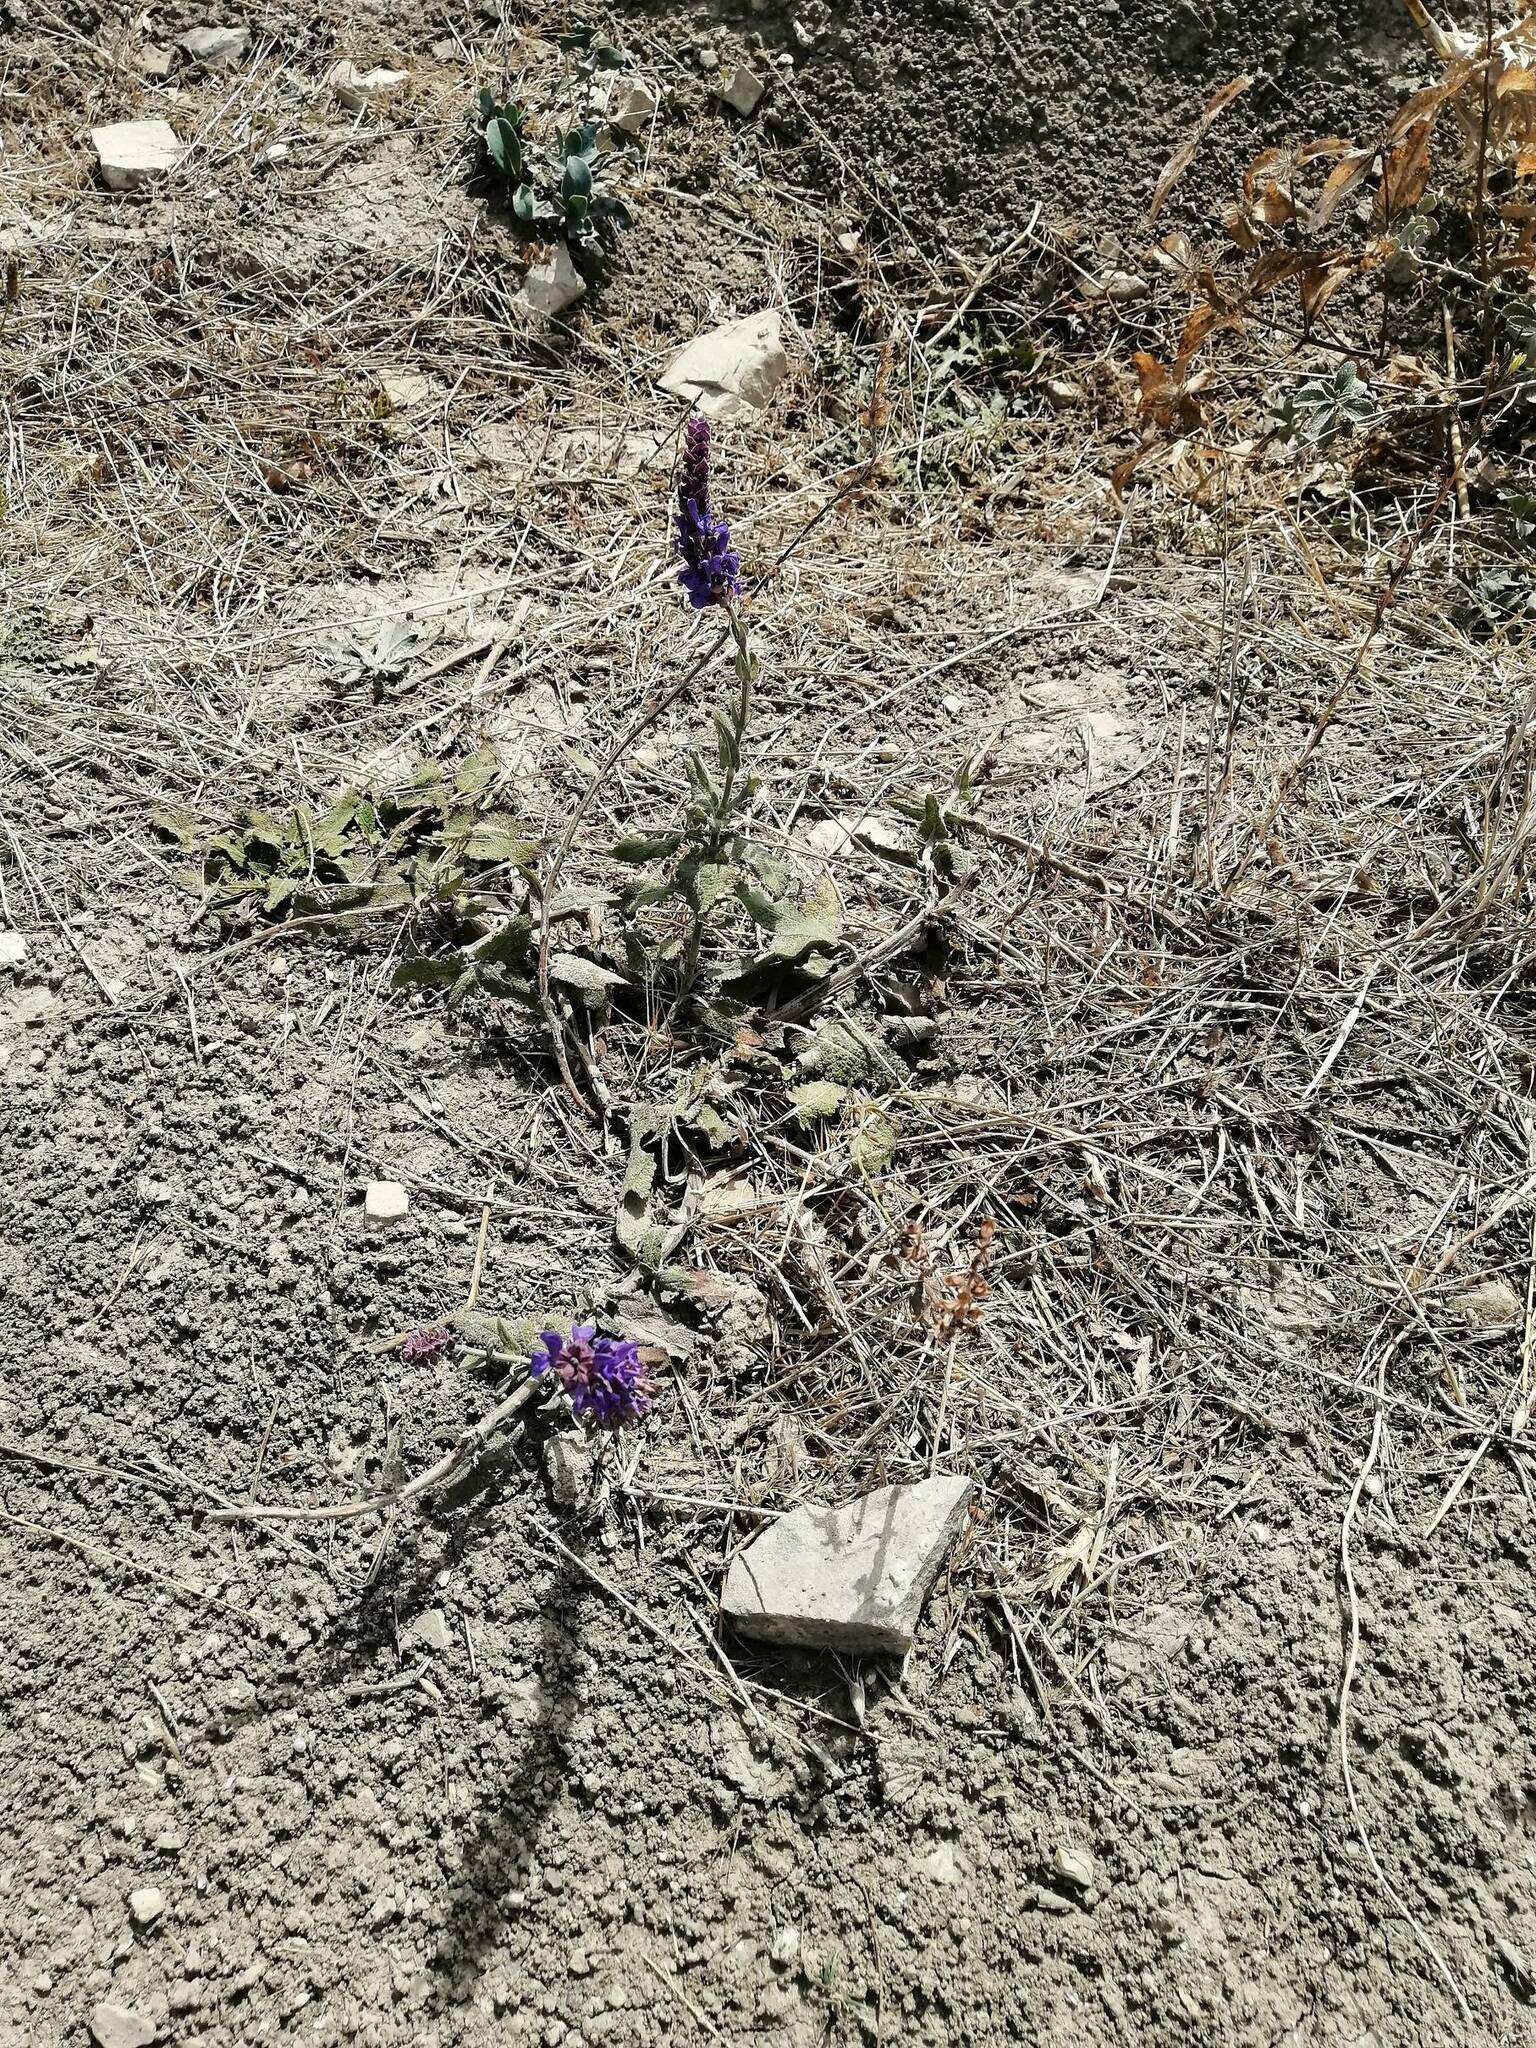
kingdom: Plantae
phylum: Tracheophyta
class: Magnoliopsida
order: Lamiales
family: Lamiaceae
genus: Salvia
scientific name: Salvia nemorosa
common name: Balkan clary
